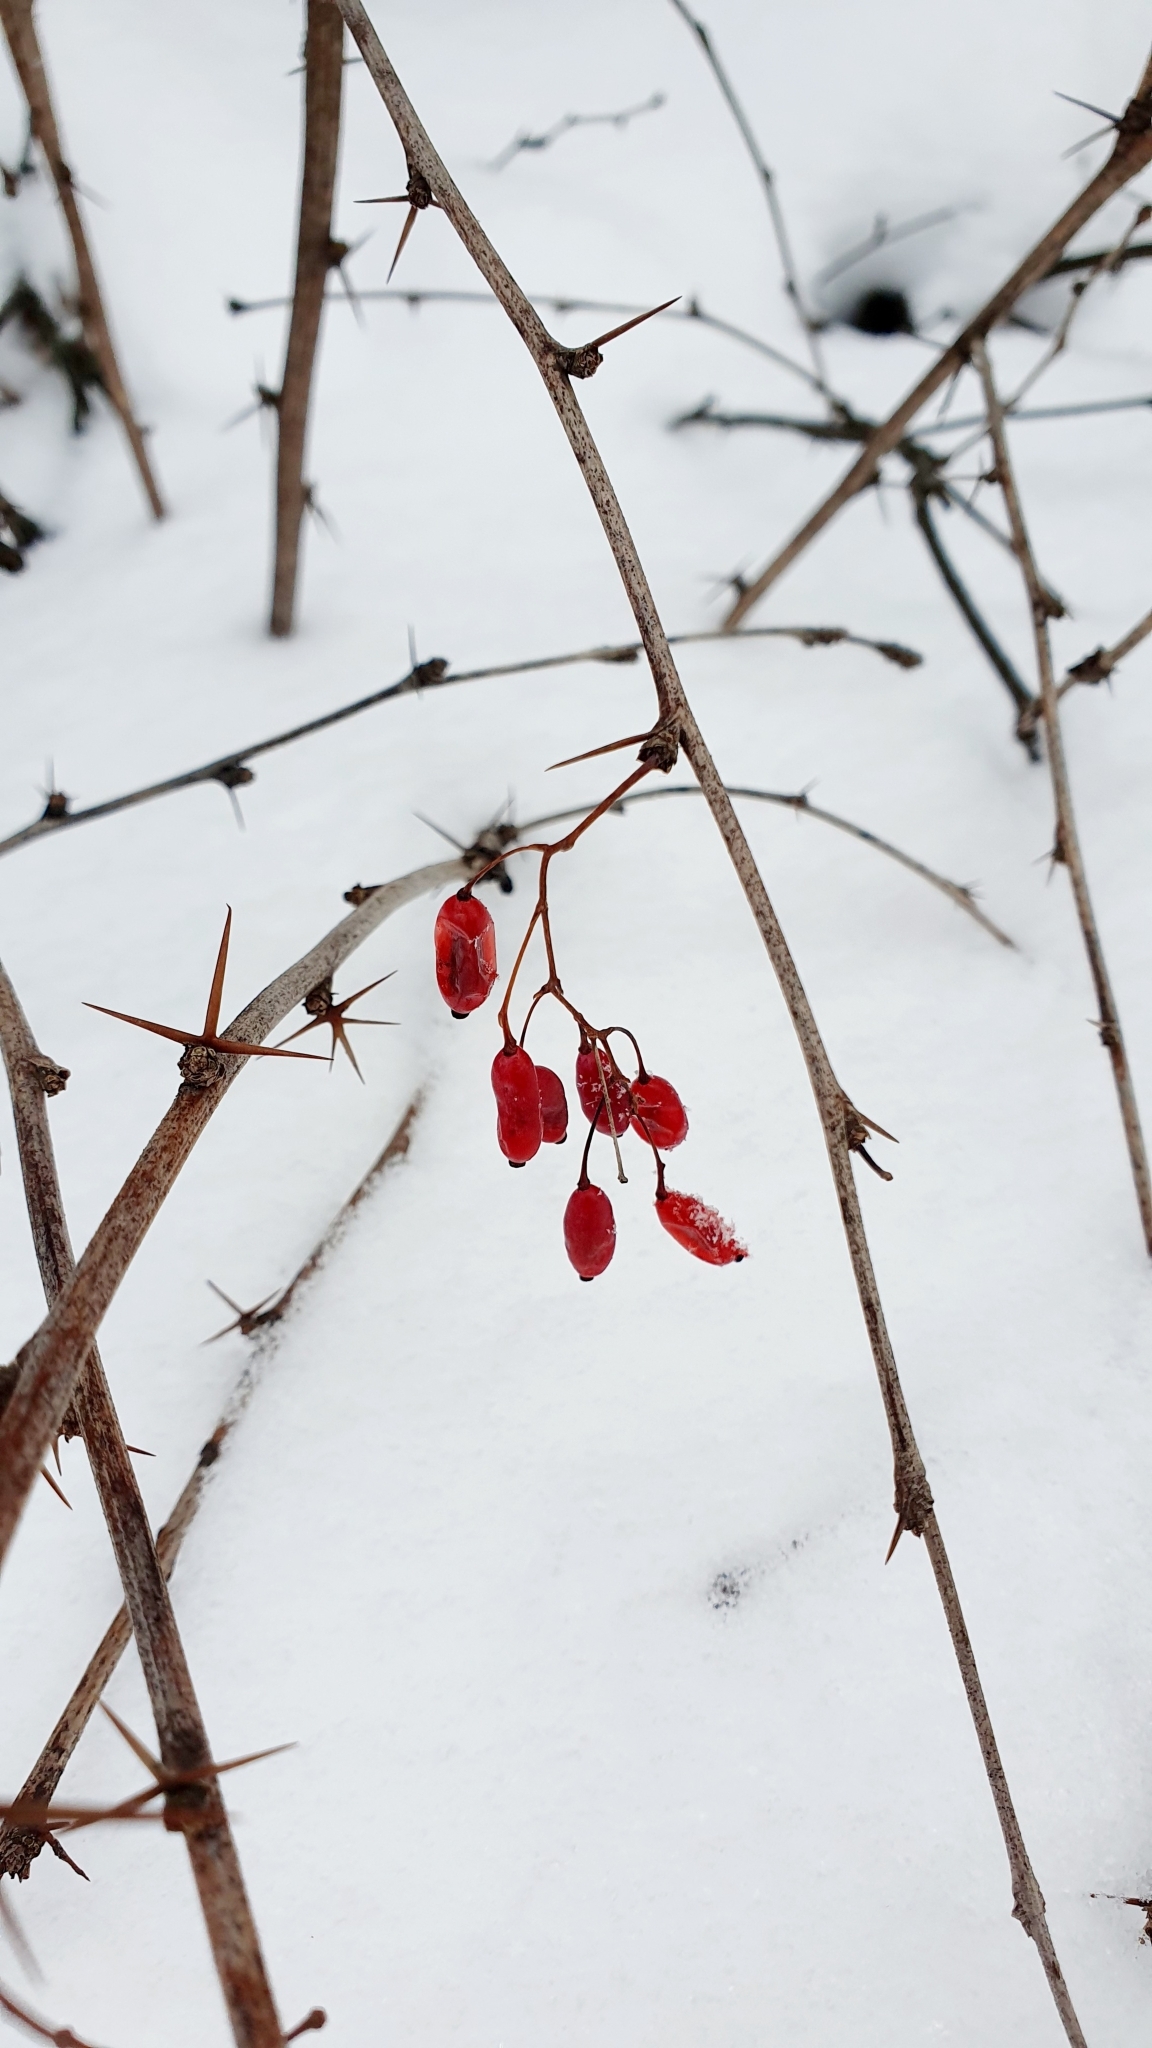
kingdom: Plantae
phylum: Tracheophyta
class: Magnoliopsida
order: Ranunculales
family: Berberidaceae
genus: Berberis
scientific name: Berberis vulgaris
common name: Barberry
